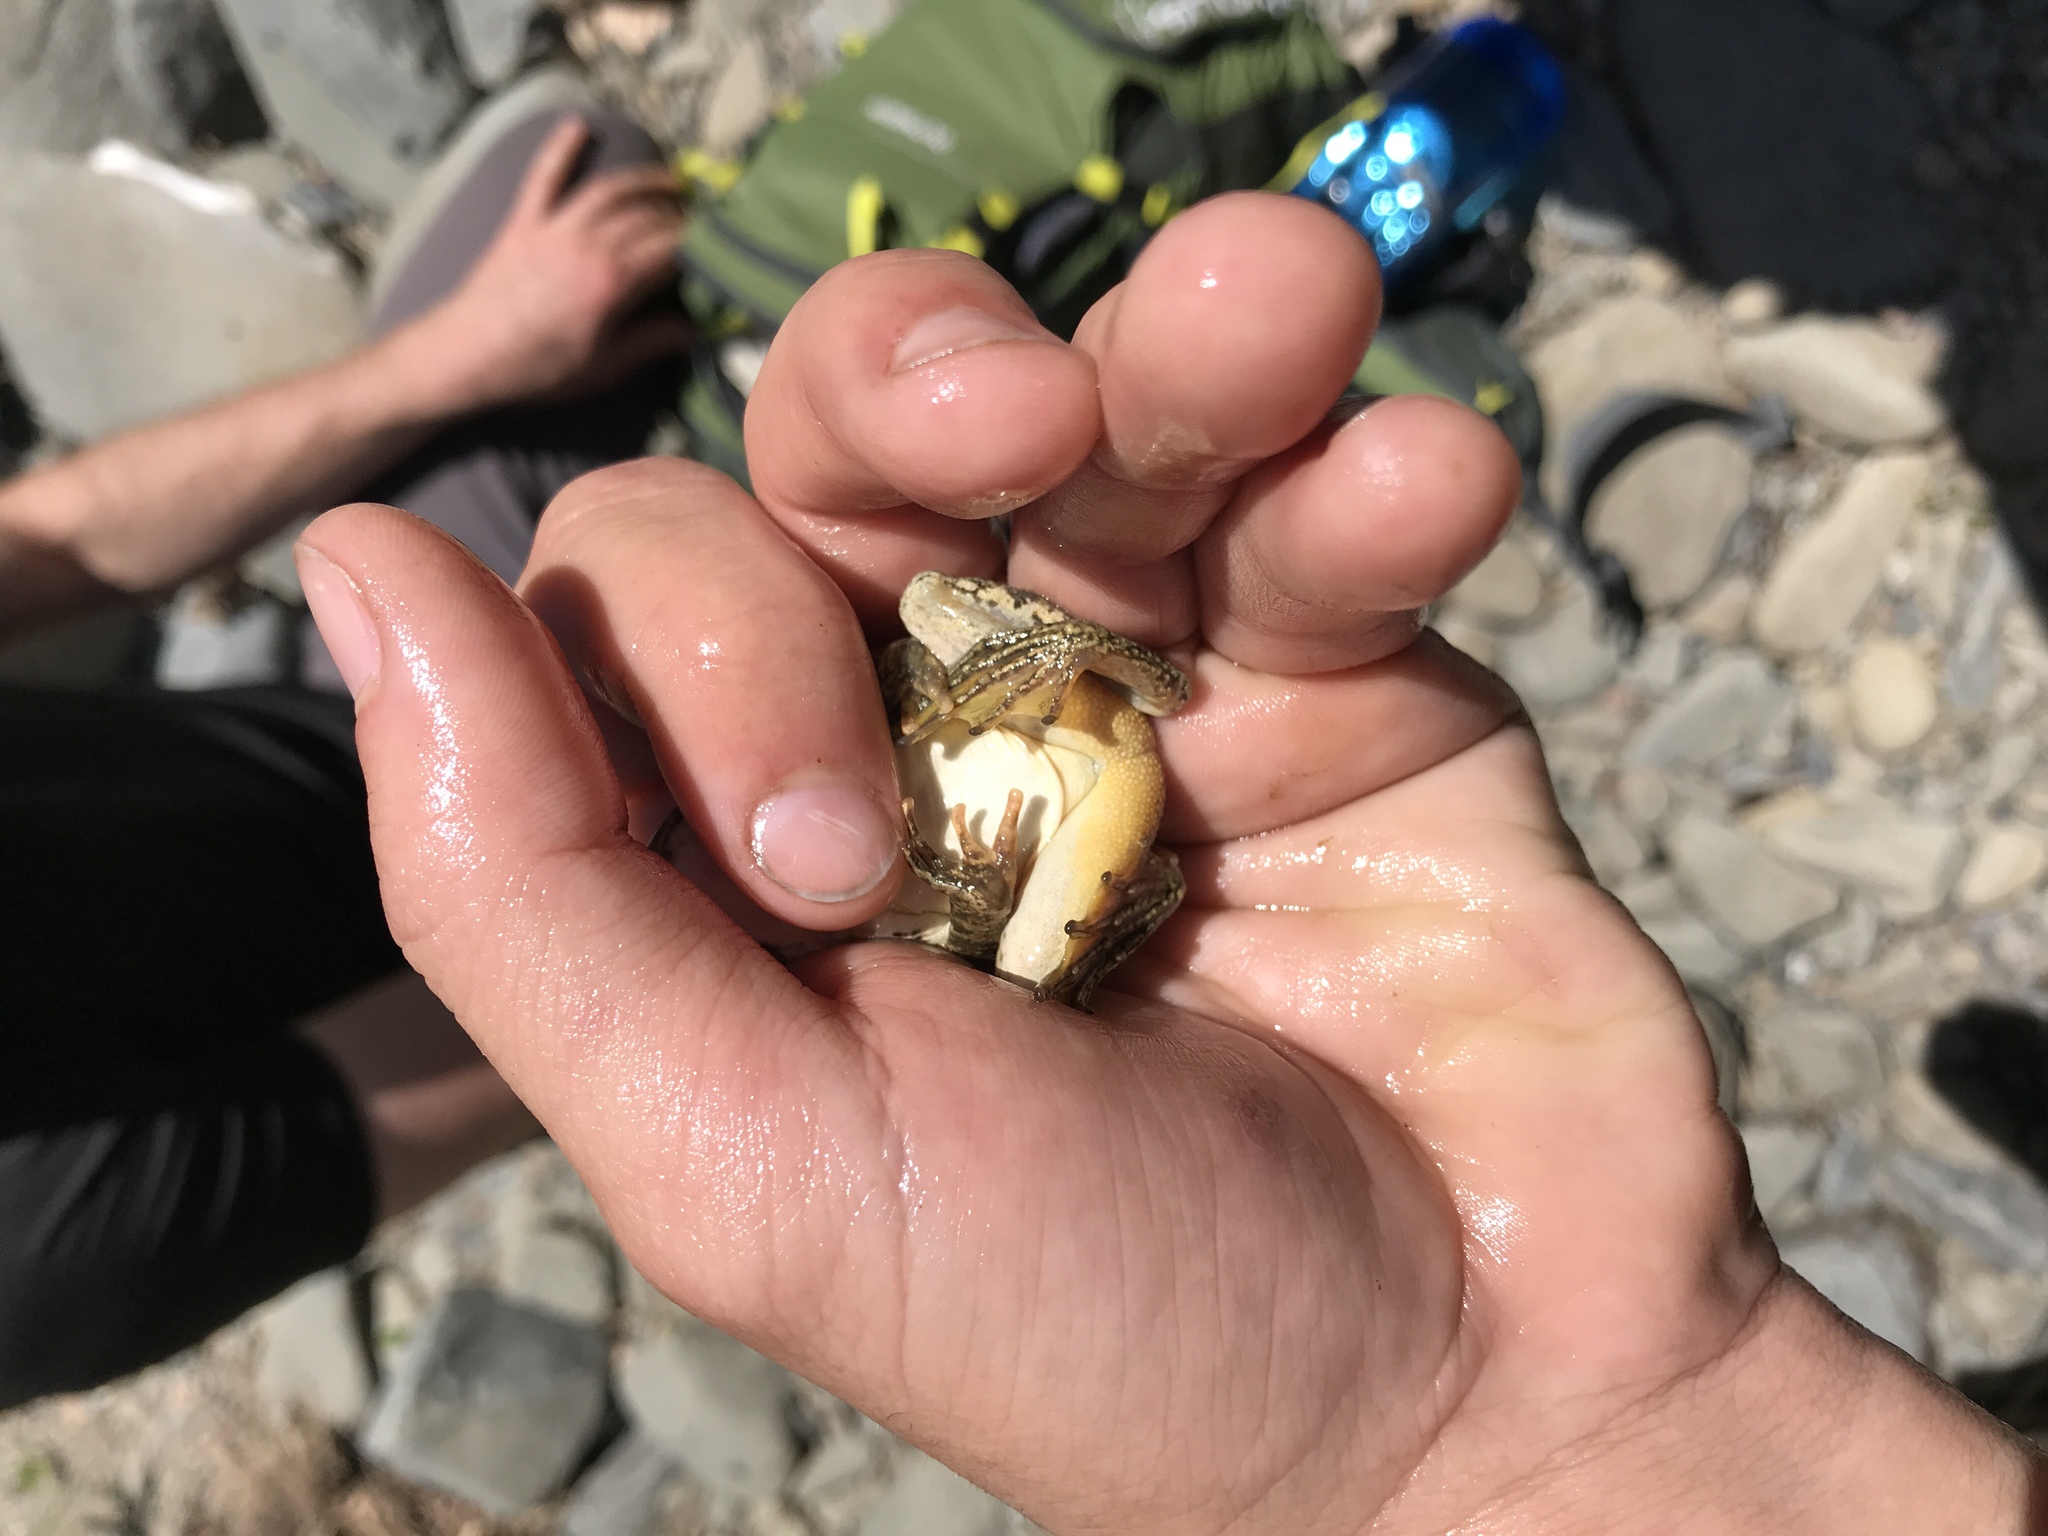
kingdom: Animalia
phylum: Chordata
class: Amphibia
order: Anura
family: Ranidae
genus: Rana
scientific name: Rana boylii
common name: Foothill yellow-legged frog
